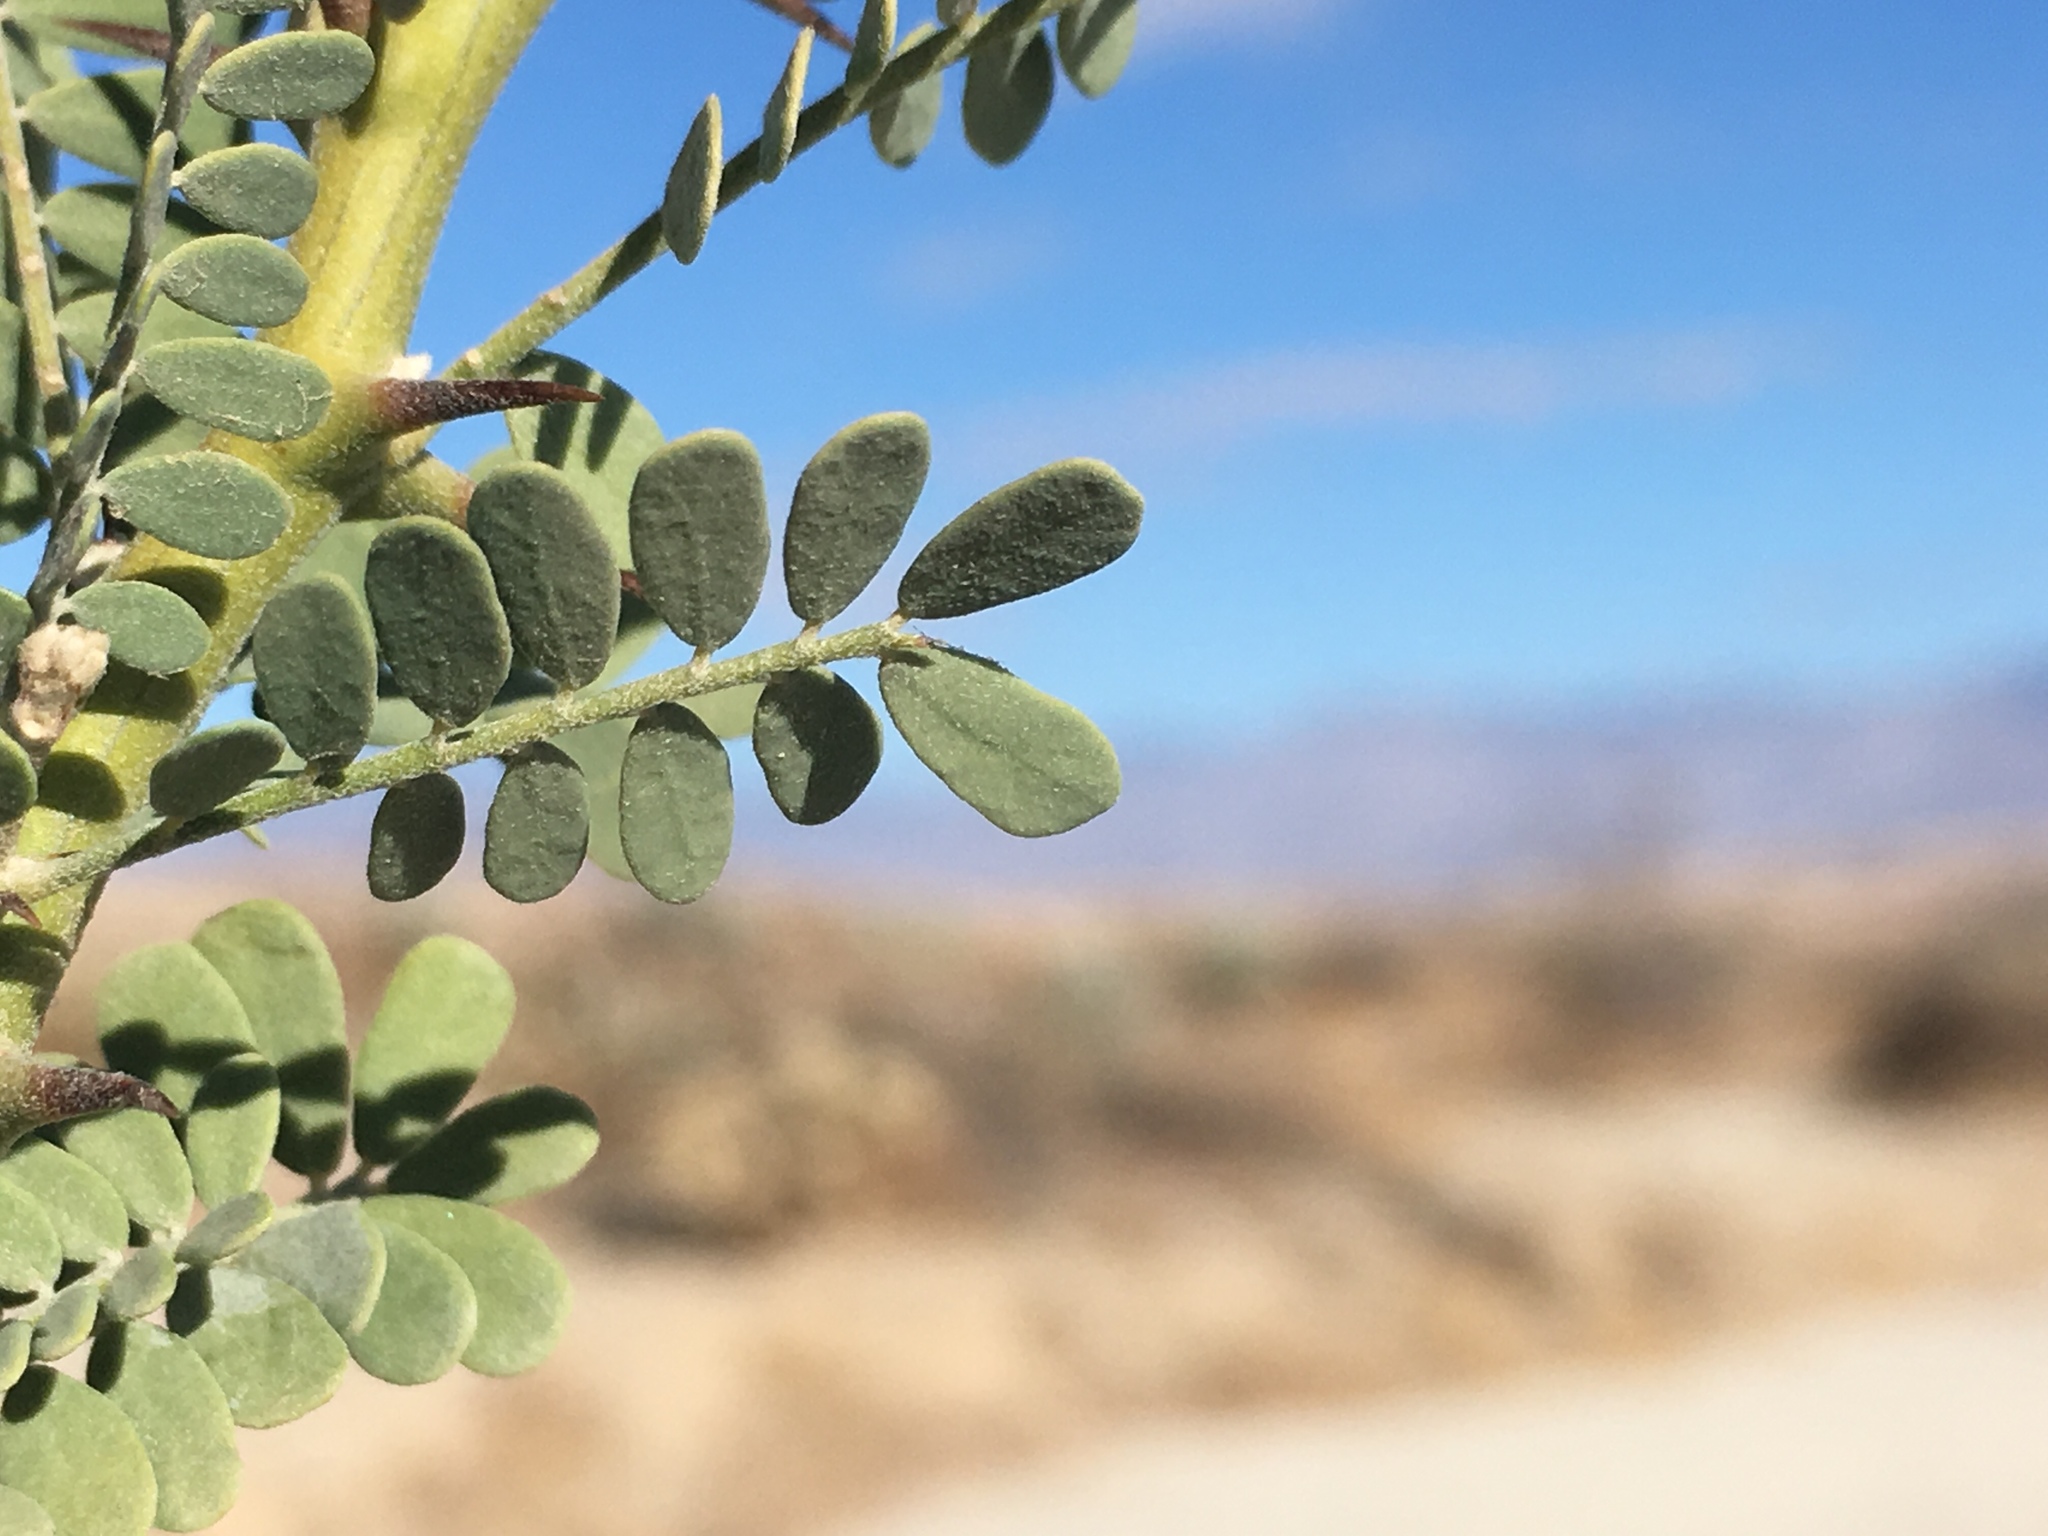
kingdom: Plantae
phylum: Tracheophyta
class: Magnoliopsida
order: Fabales
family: Fabaceae
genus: Olneya
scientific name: Olneya tesota
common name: Desert ironwood
